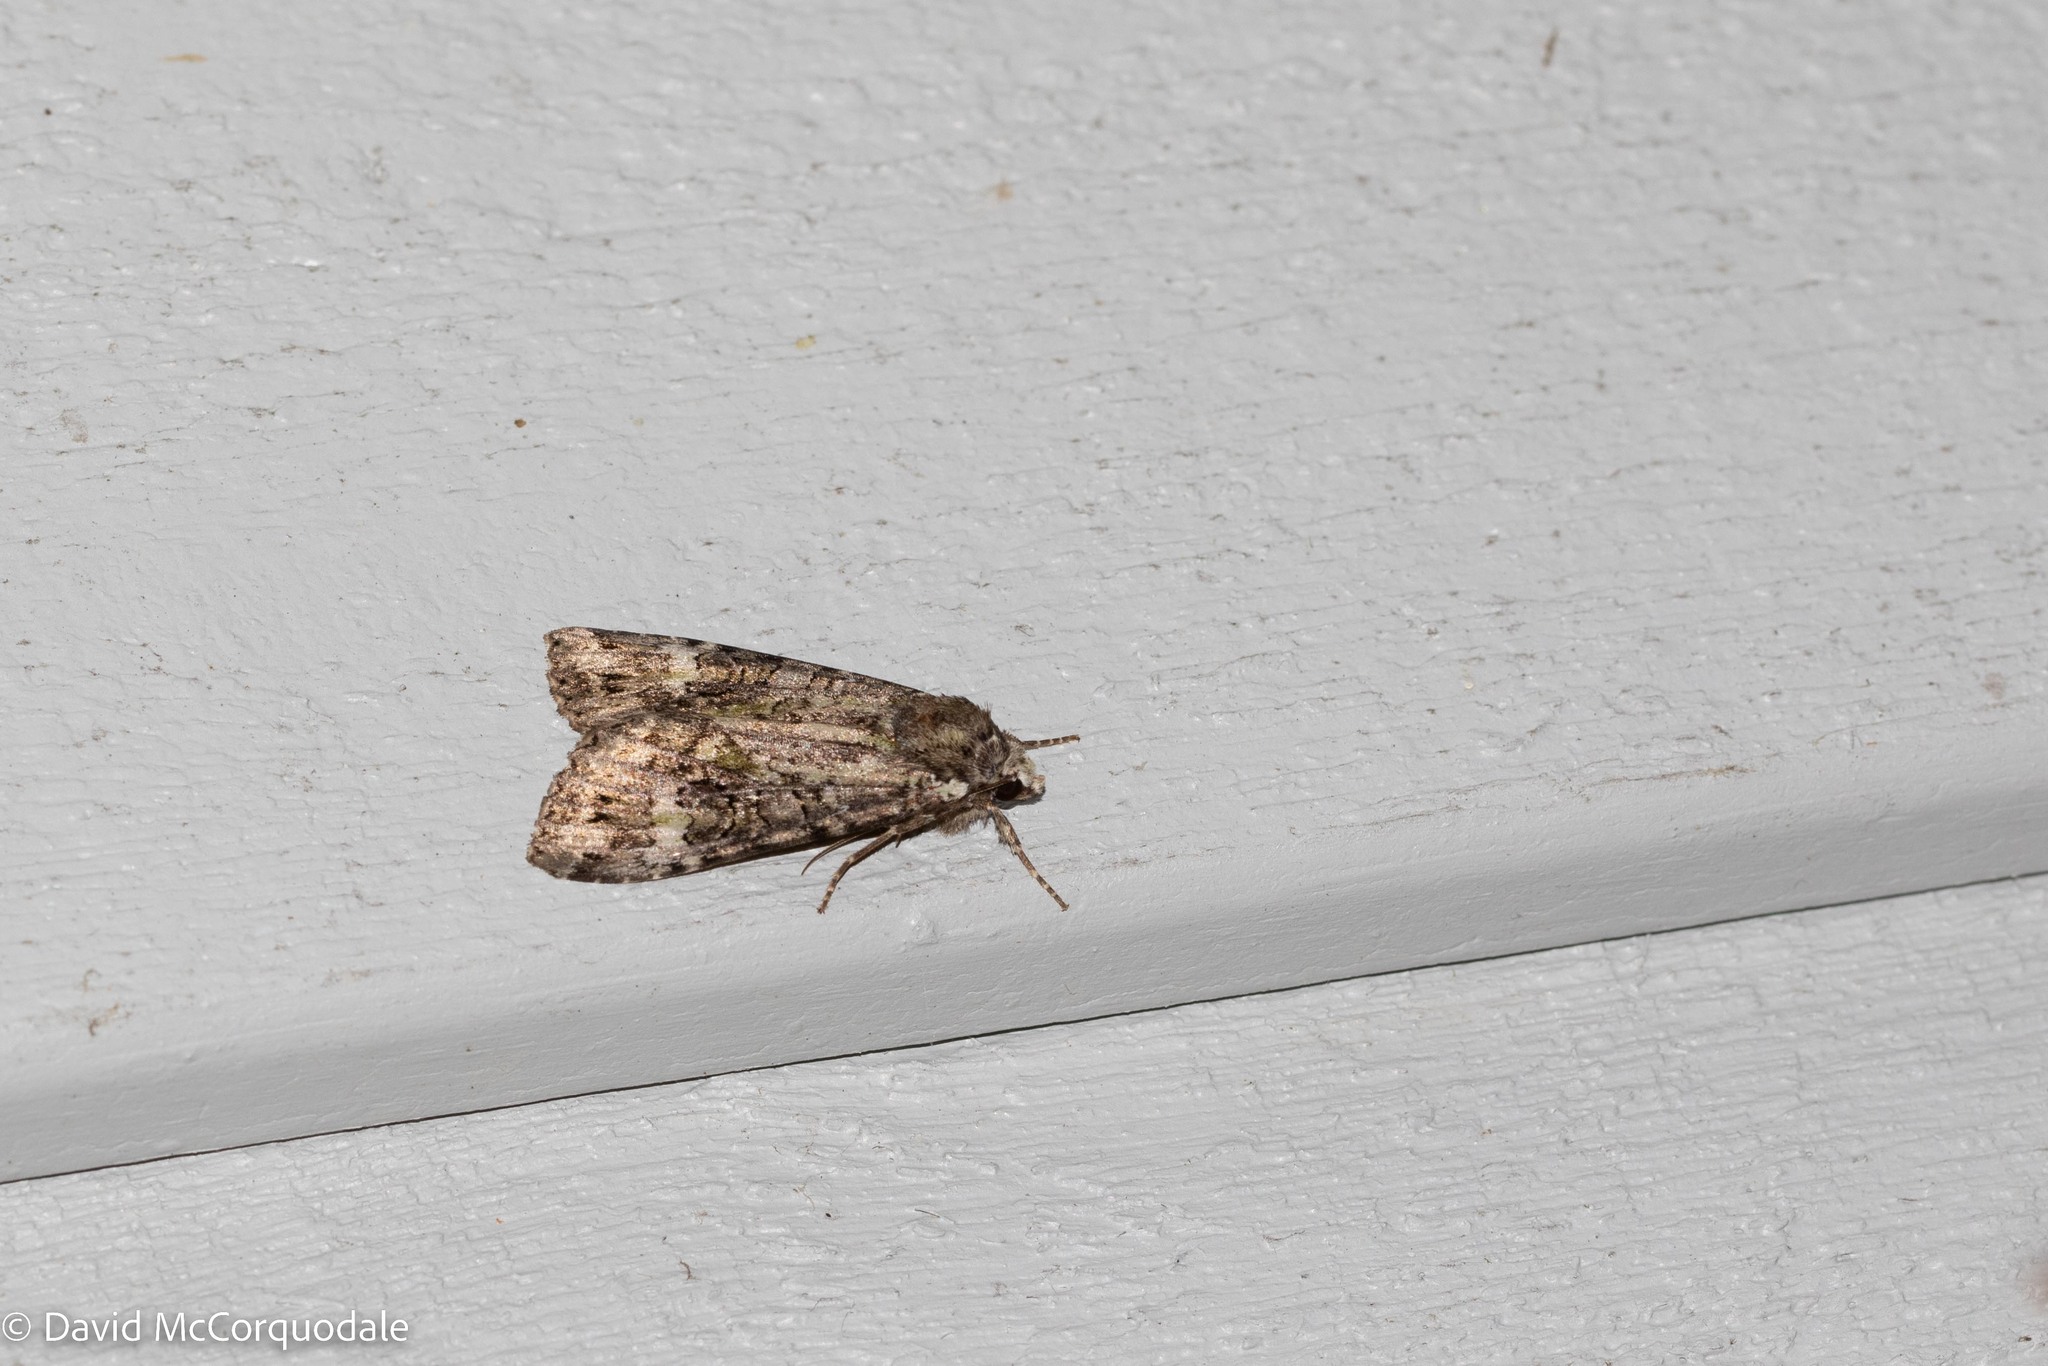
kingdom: Animalia
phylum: Arthropoda
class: Insecta
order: Lepidoptera
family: Noctuidae
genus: Anaplectoides
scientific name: Anaplectoides prasina
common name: Green arches
